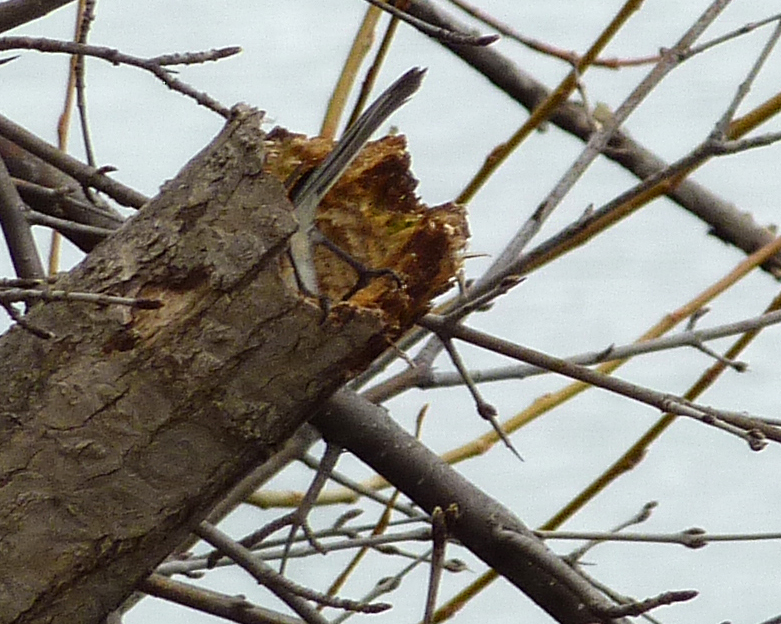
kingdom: Animalia
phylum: Chordata
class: Aves
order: Passeriformes
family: Paridae
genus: Poecile
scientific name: Poecile atricapillus
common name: Black-capped chickadee
